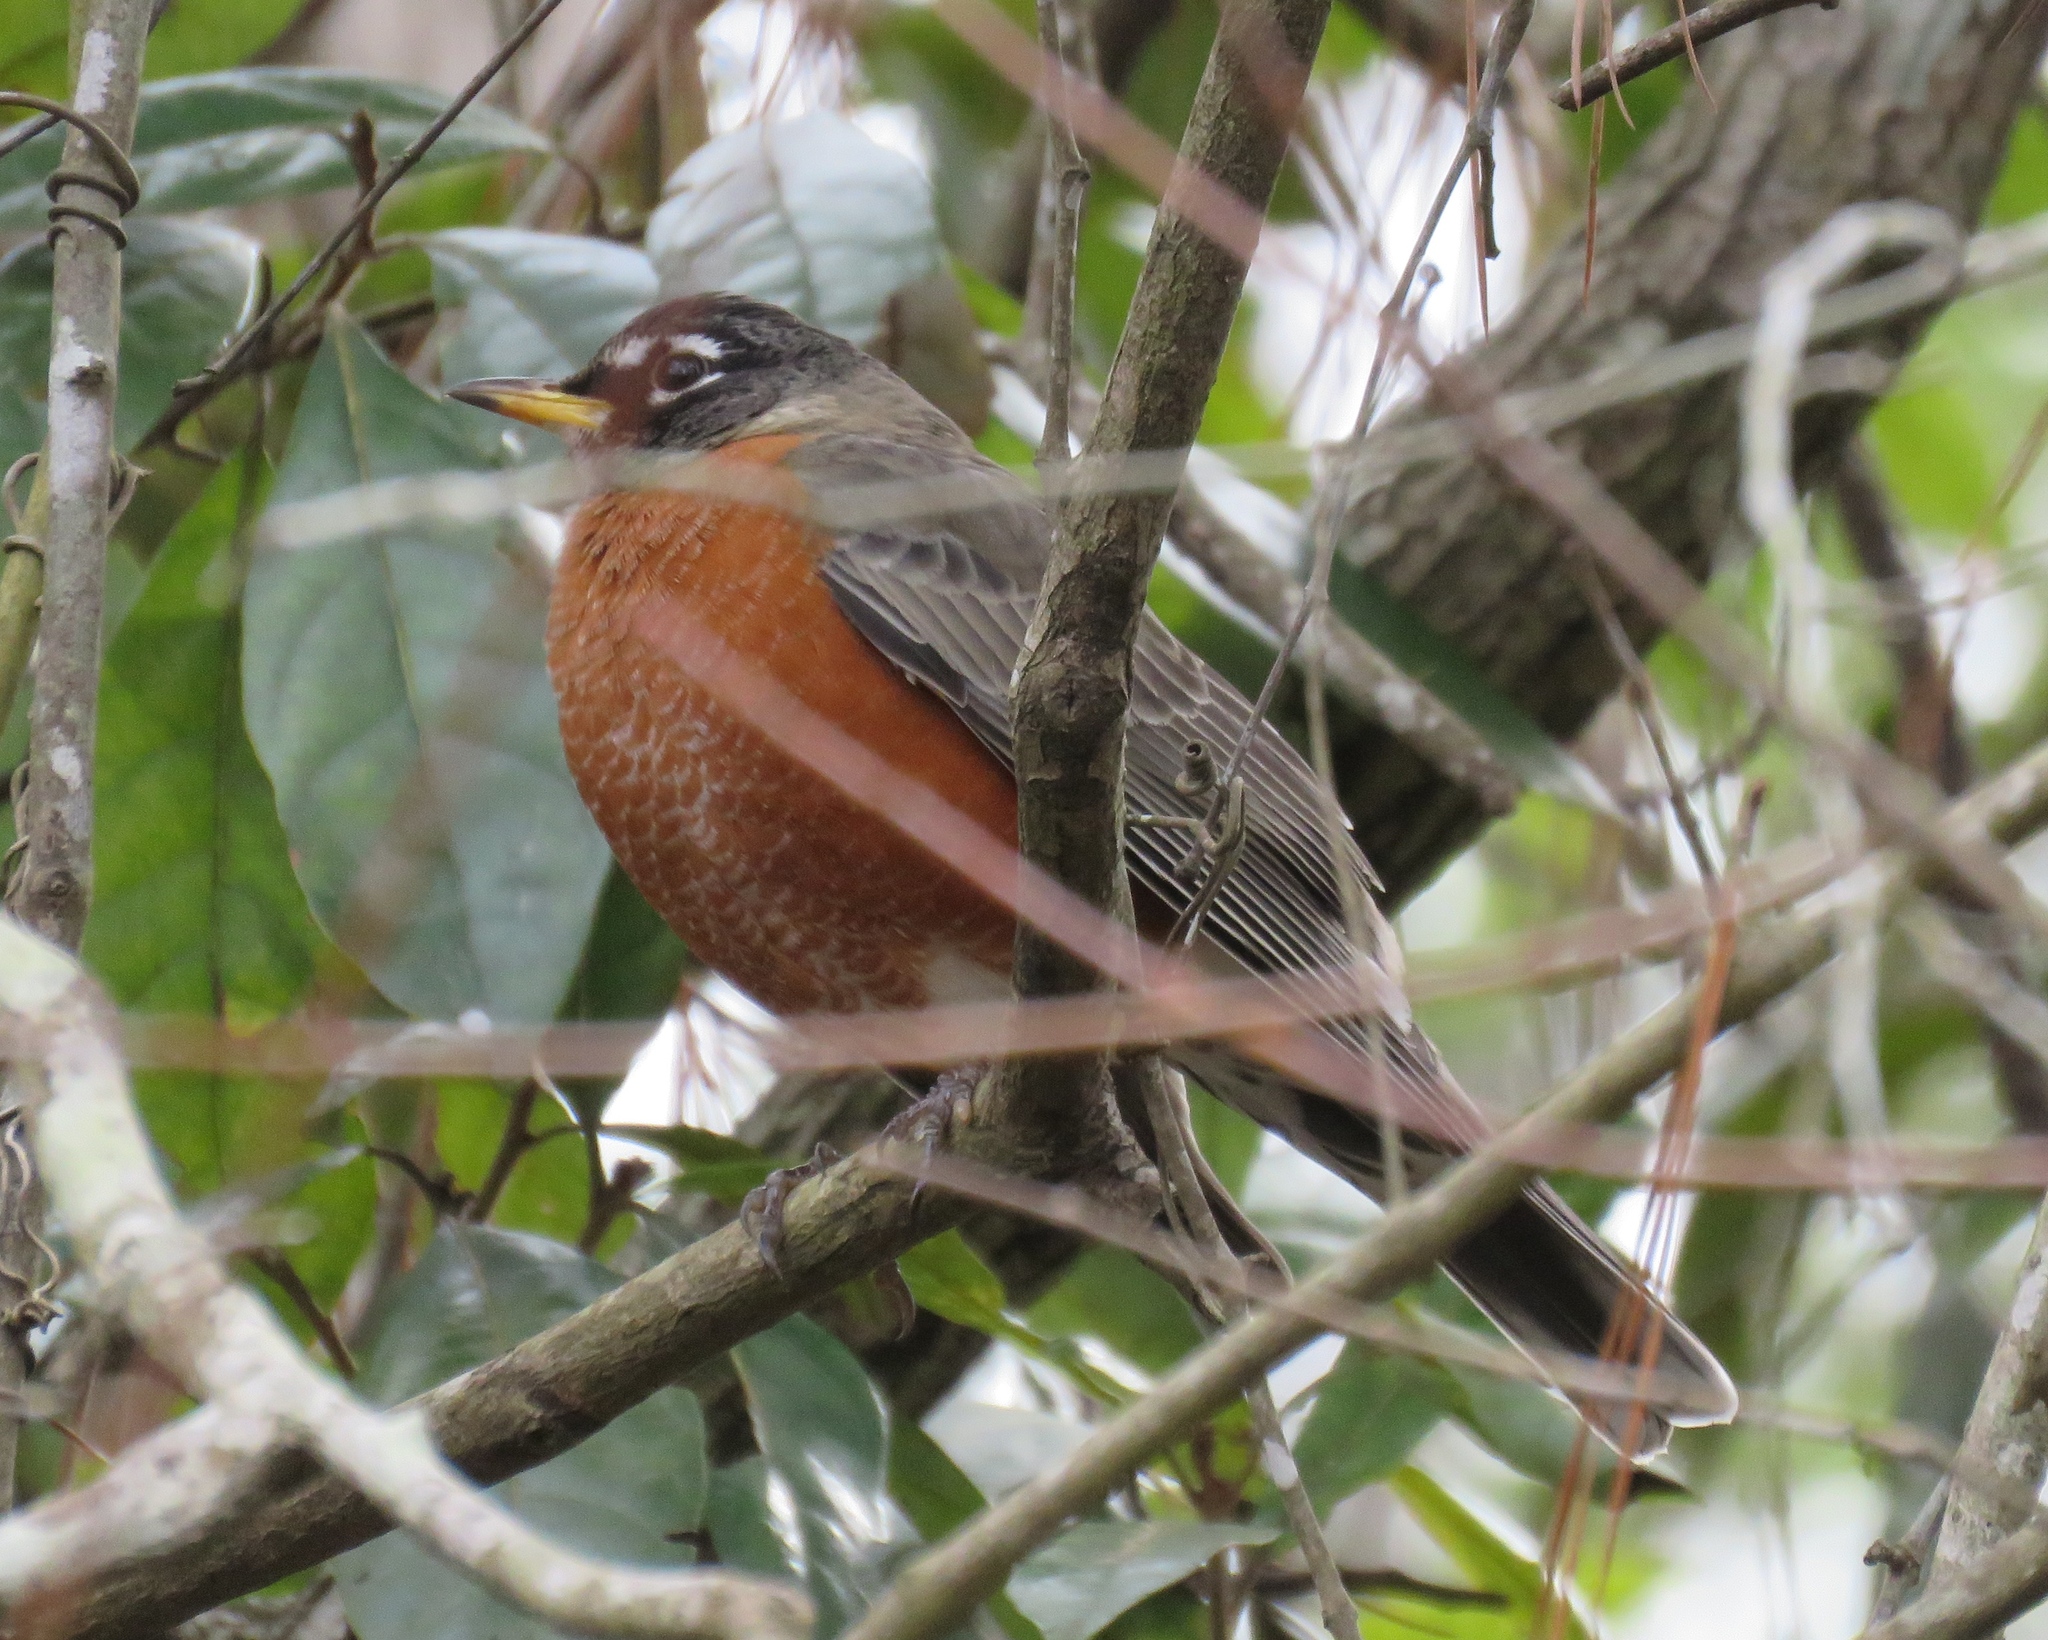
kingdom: Animalia
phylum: Chordata
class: Aves
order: Passeriformes
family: Turdidae
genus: Turdus
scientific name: Turdus migratorius
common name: American robin
